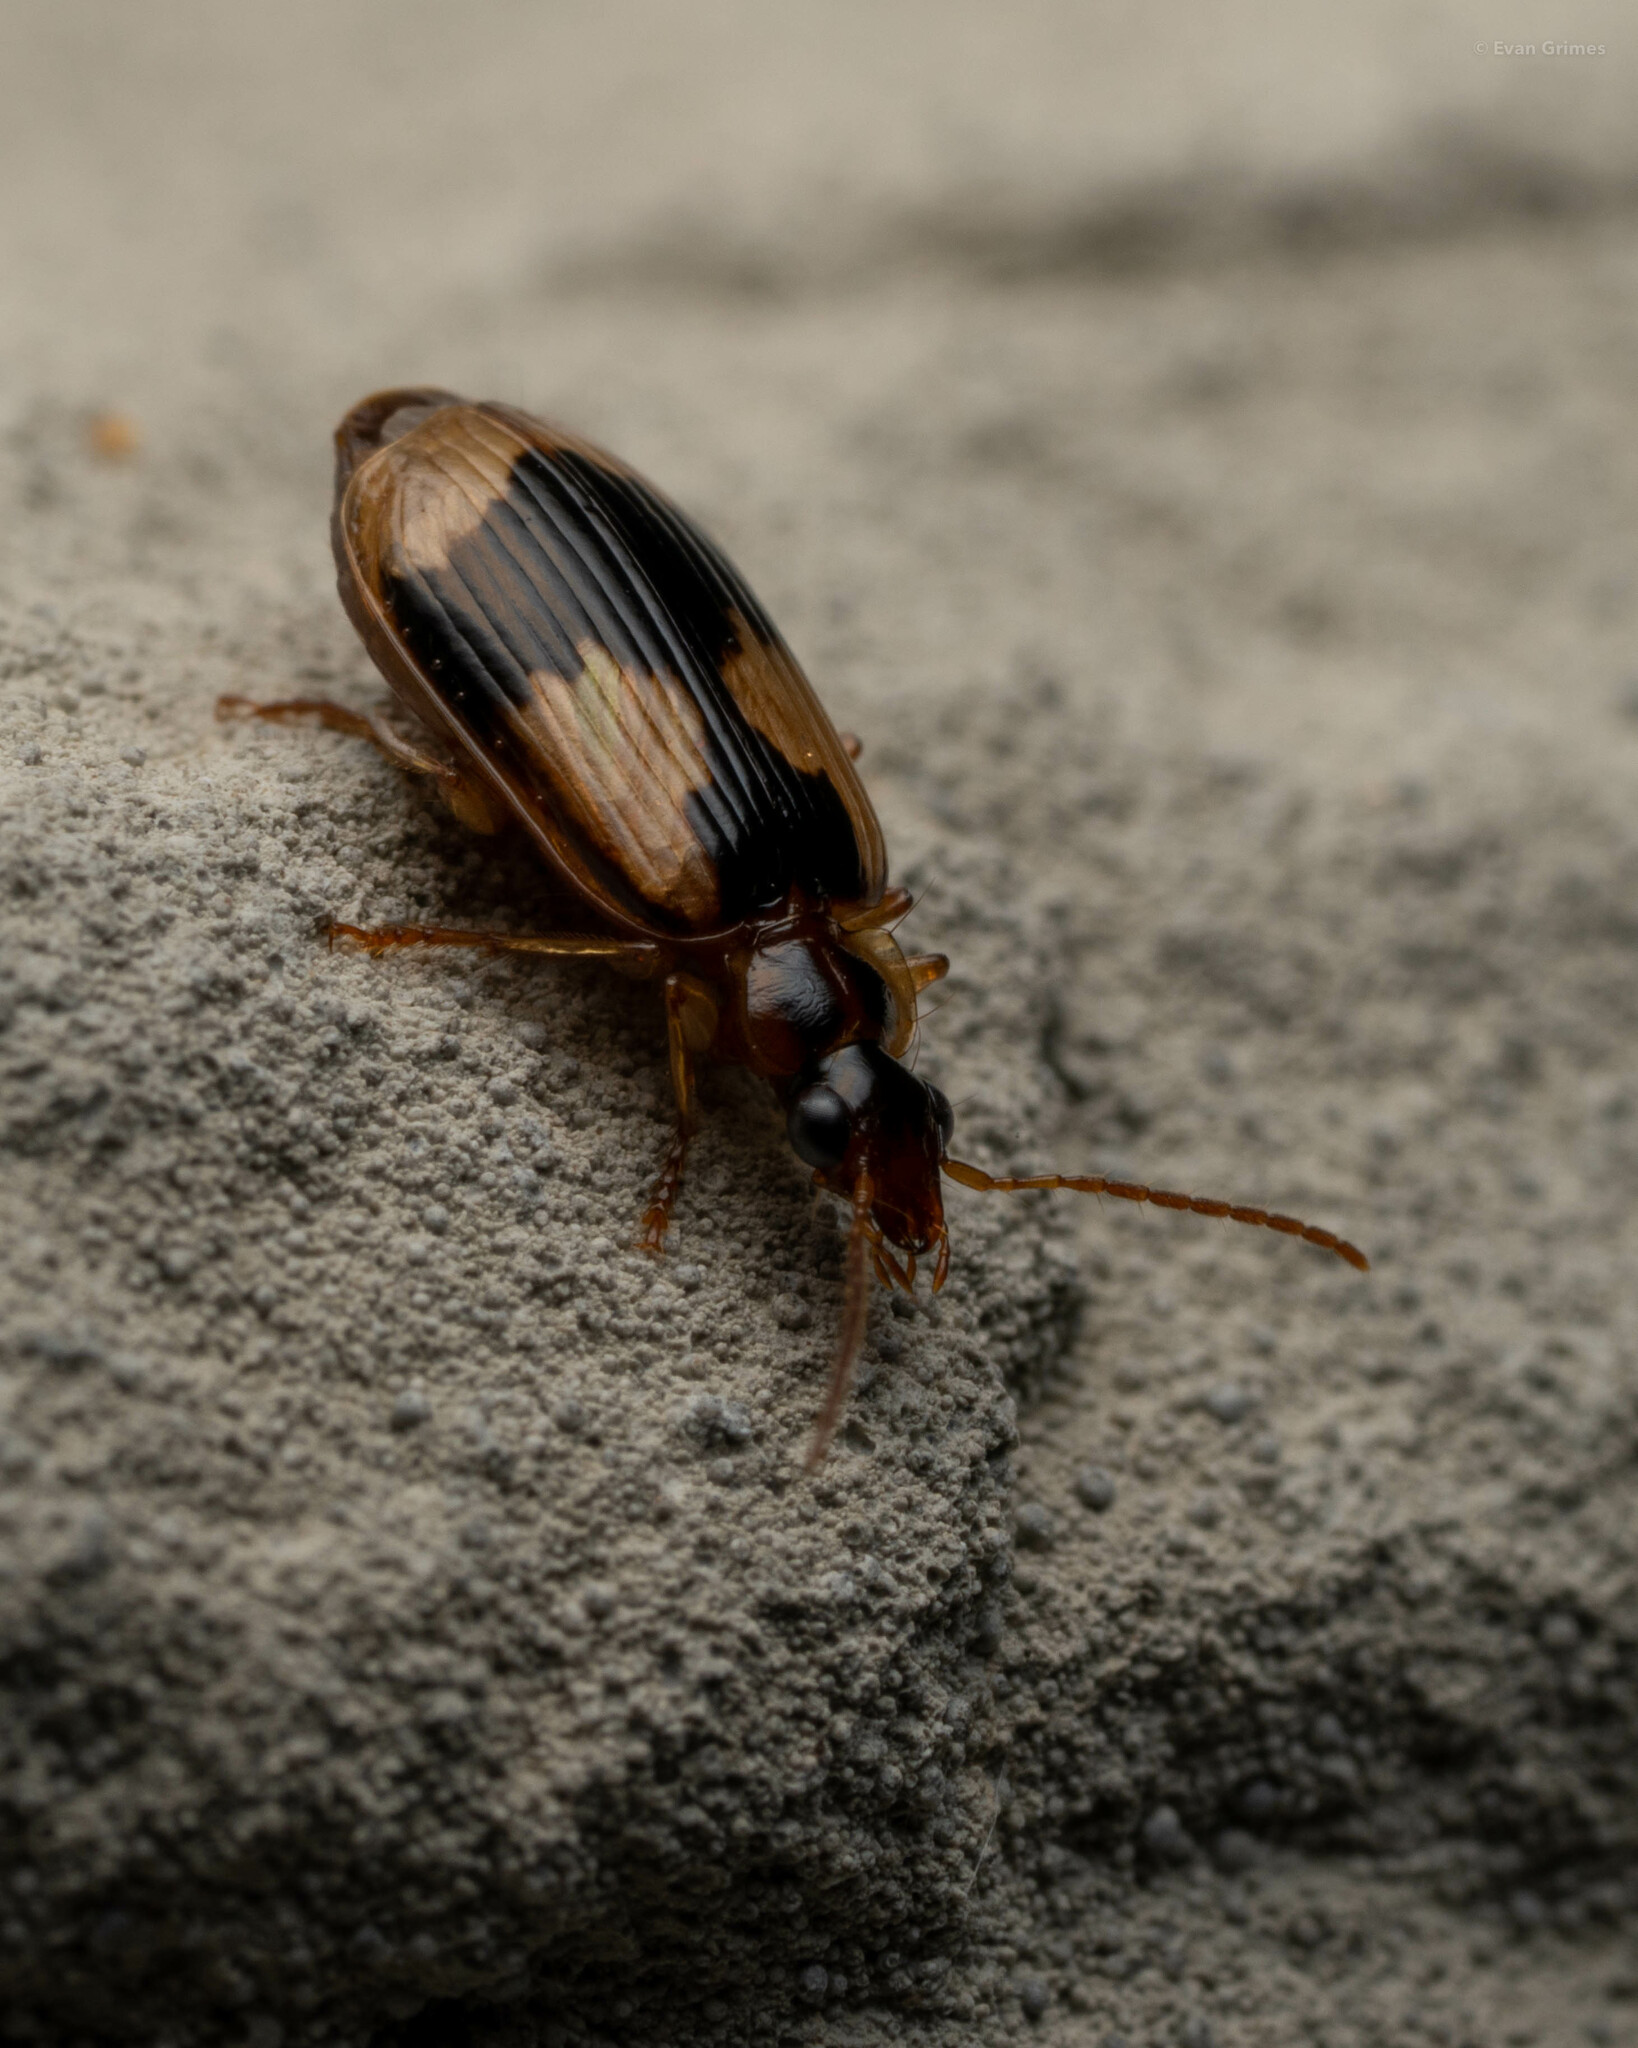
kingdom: Animalia
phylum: Arthropoda
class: Insecta
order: Coleoptera
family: Carabidae
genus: Lebia
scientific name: Lebia fuscata
